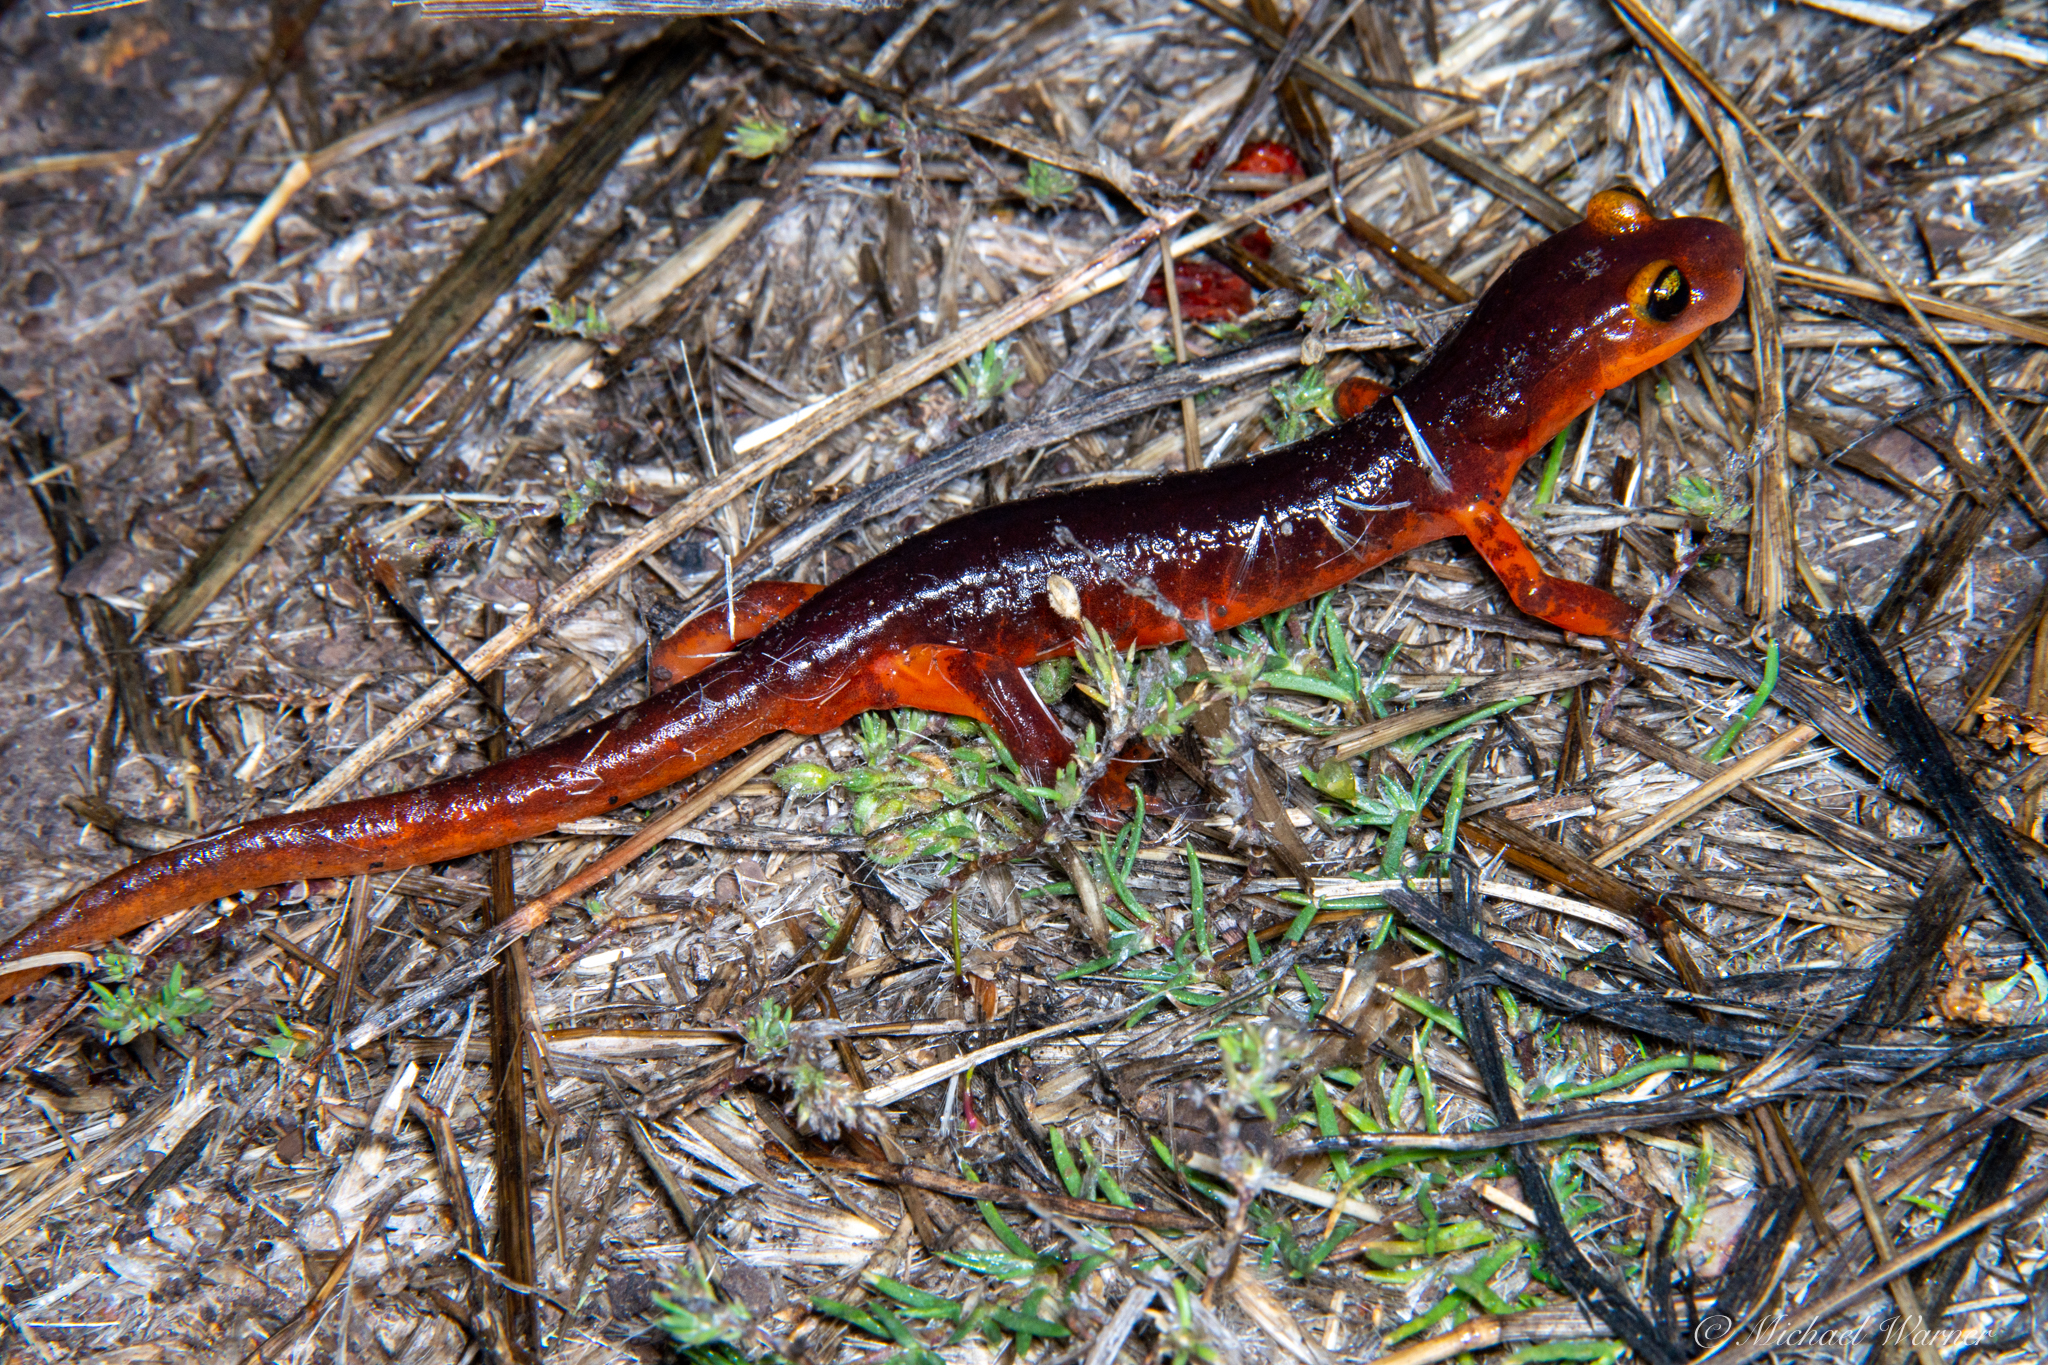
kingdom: Animalia
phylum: Chordata
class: Amphibia
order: Caudata
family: Plethodontidae
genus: Ensatina
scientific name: Ensatina eschscholtzii
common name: Ensatina
